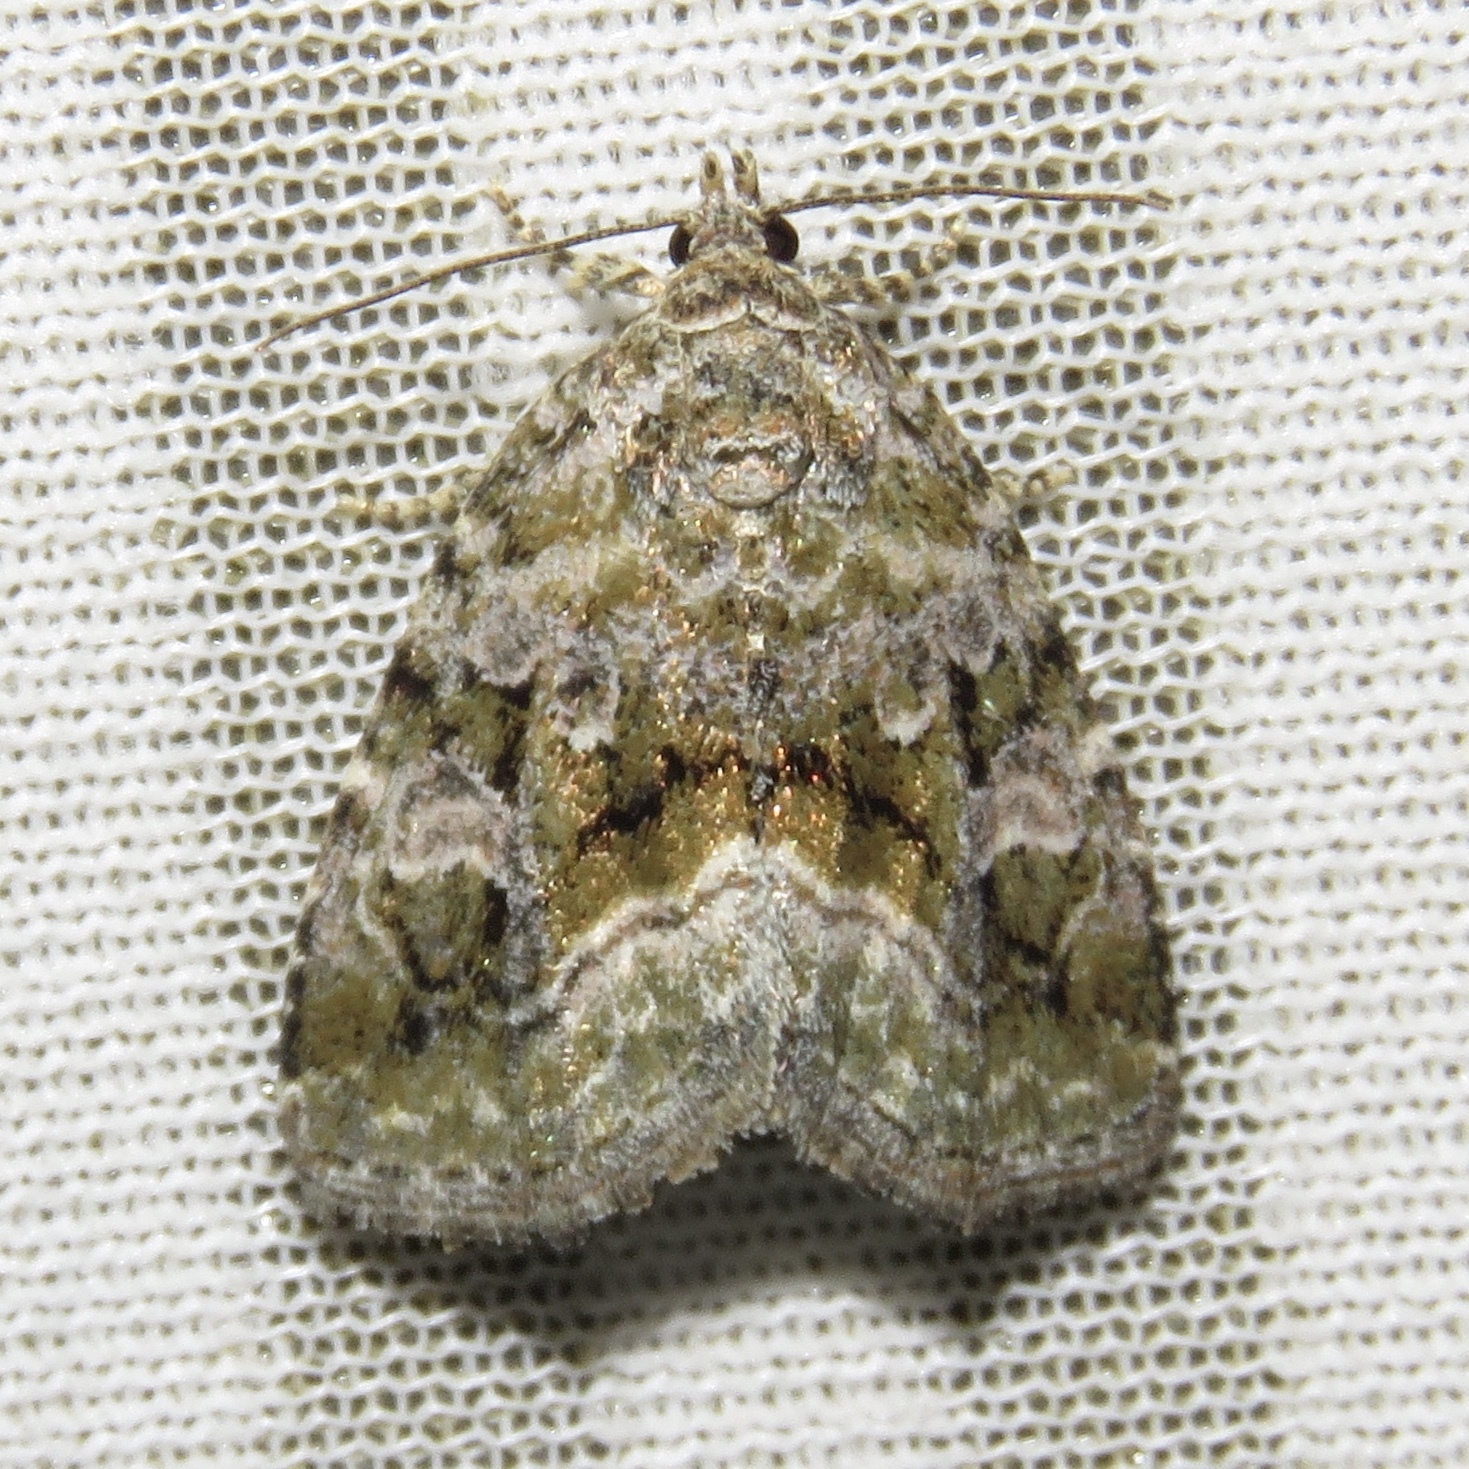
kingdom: Animalia
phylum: Arthropoda
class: Insecta
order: Lepidoptera
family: Noctuidae
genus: Protodeltote
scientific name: Protodeltote muscosula
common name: Large mossy glyph
